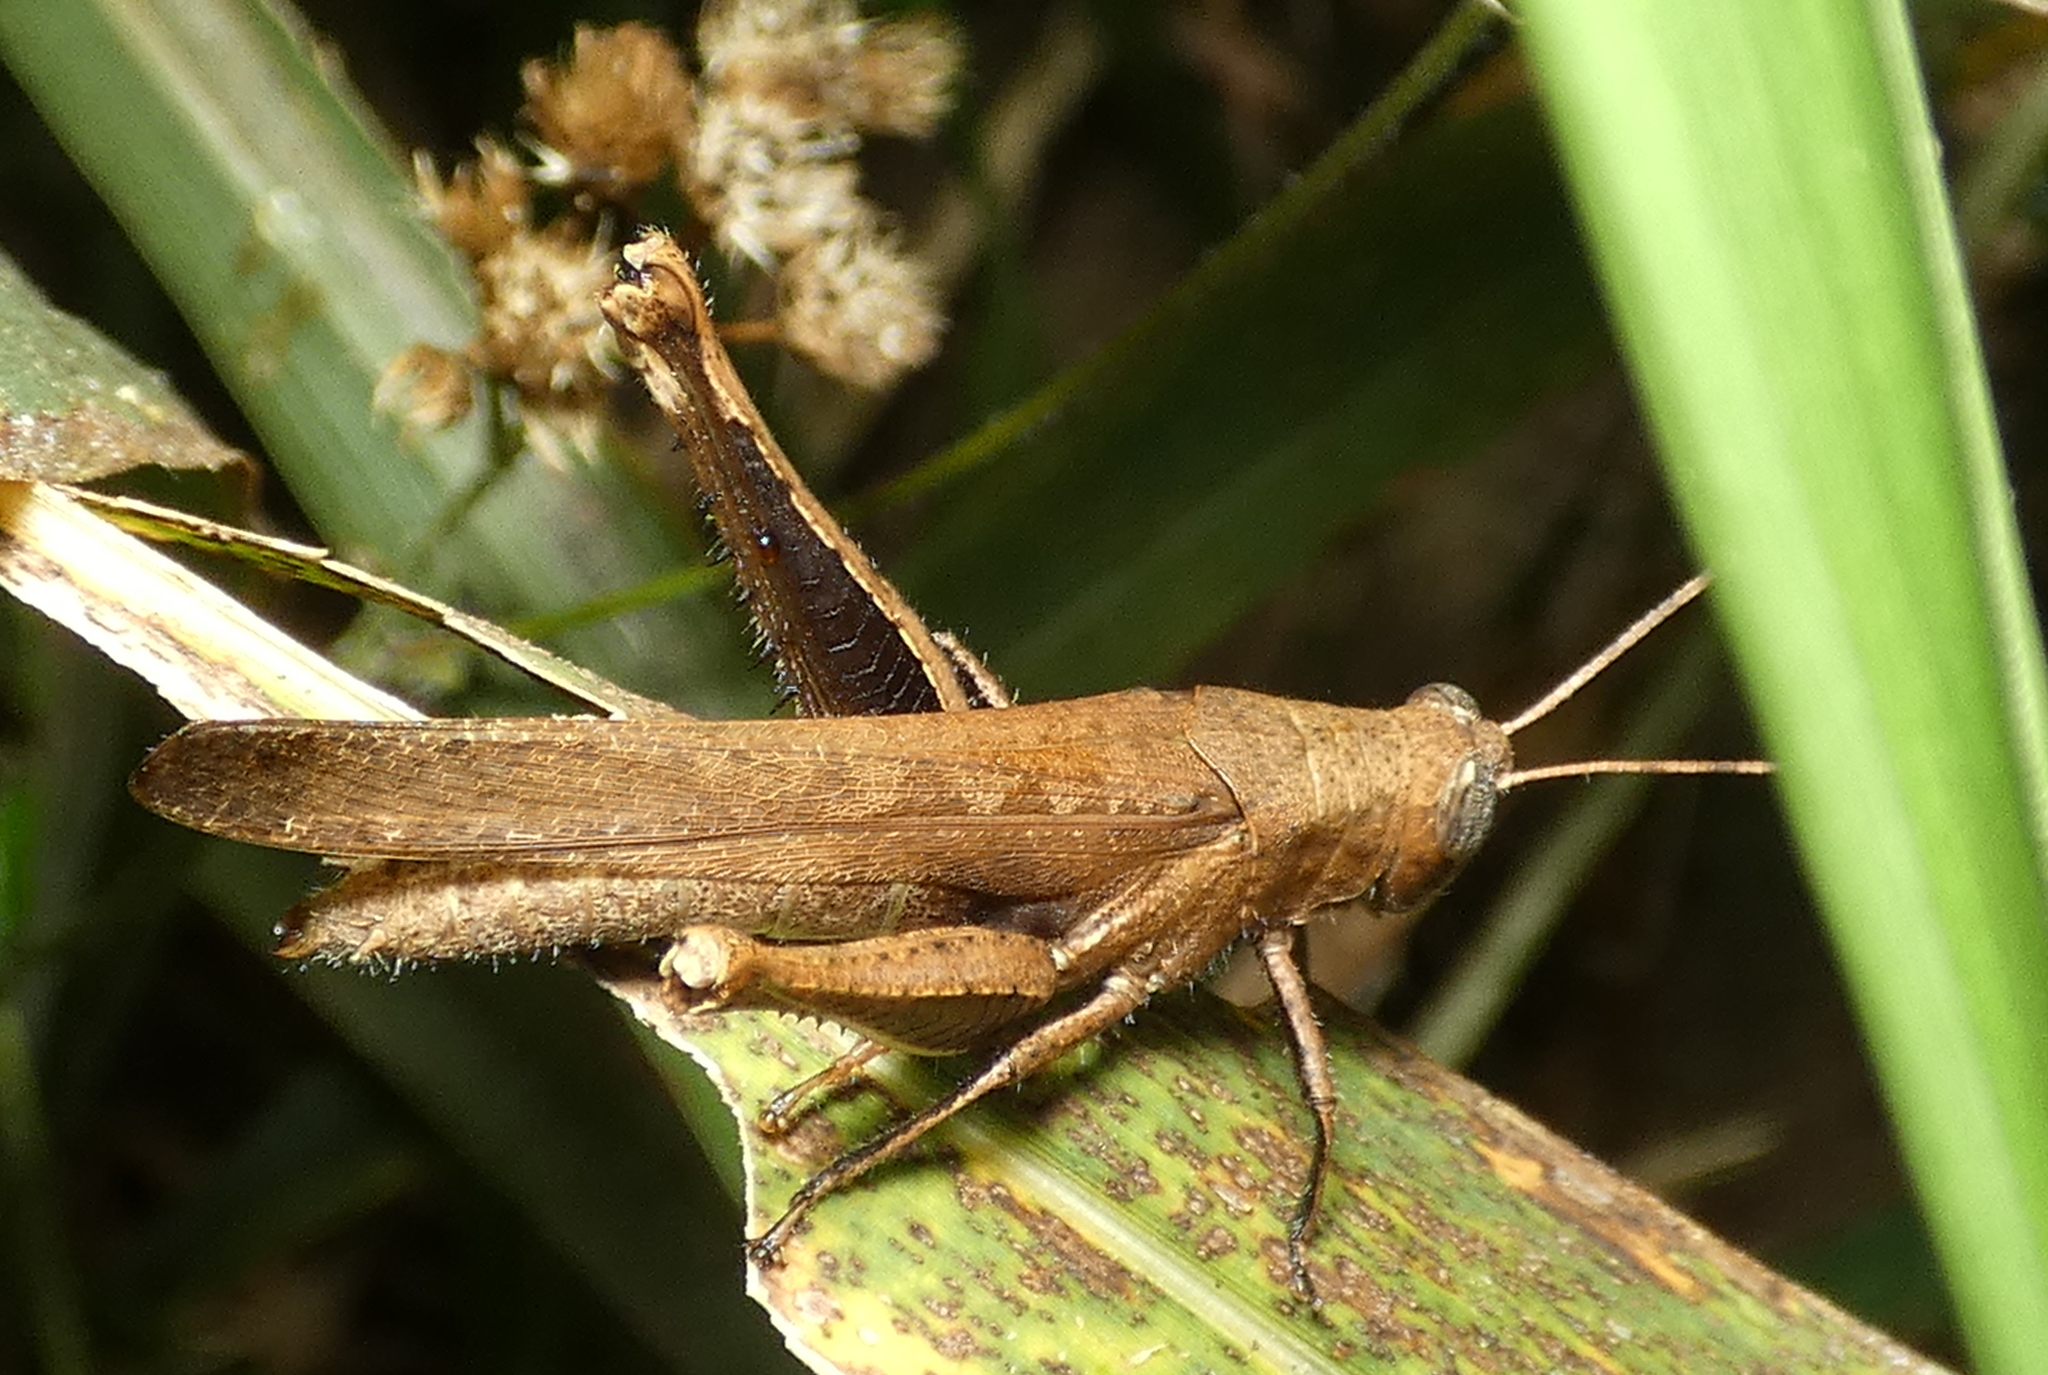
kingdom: Animalia
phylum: Arthropoda
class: Insecta
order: Orthoptera
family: Acrididae
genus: Abracris
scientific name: Abracris flavolineata
